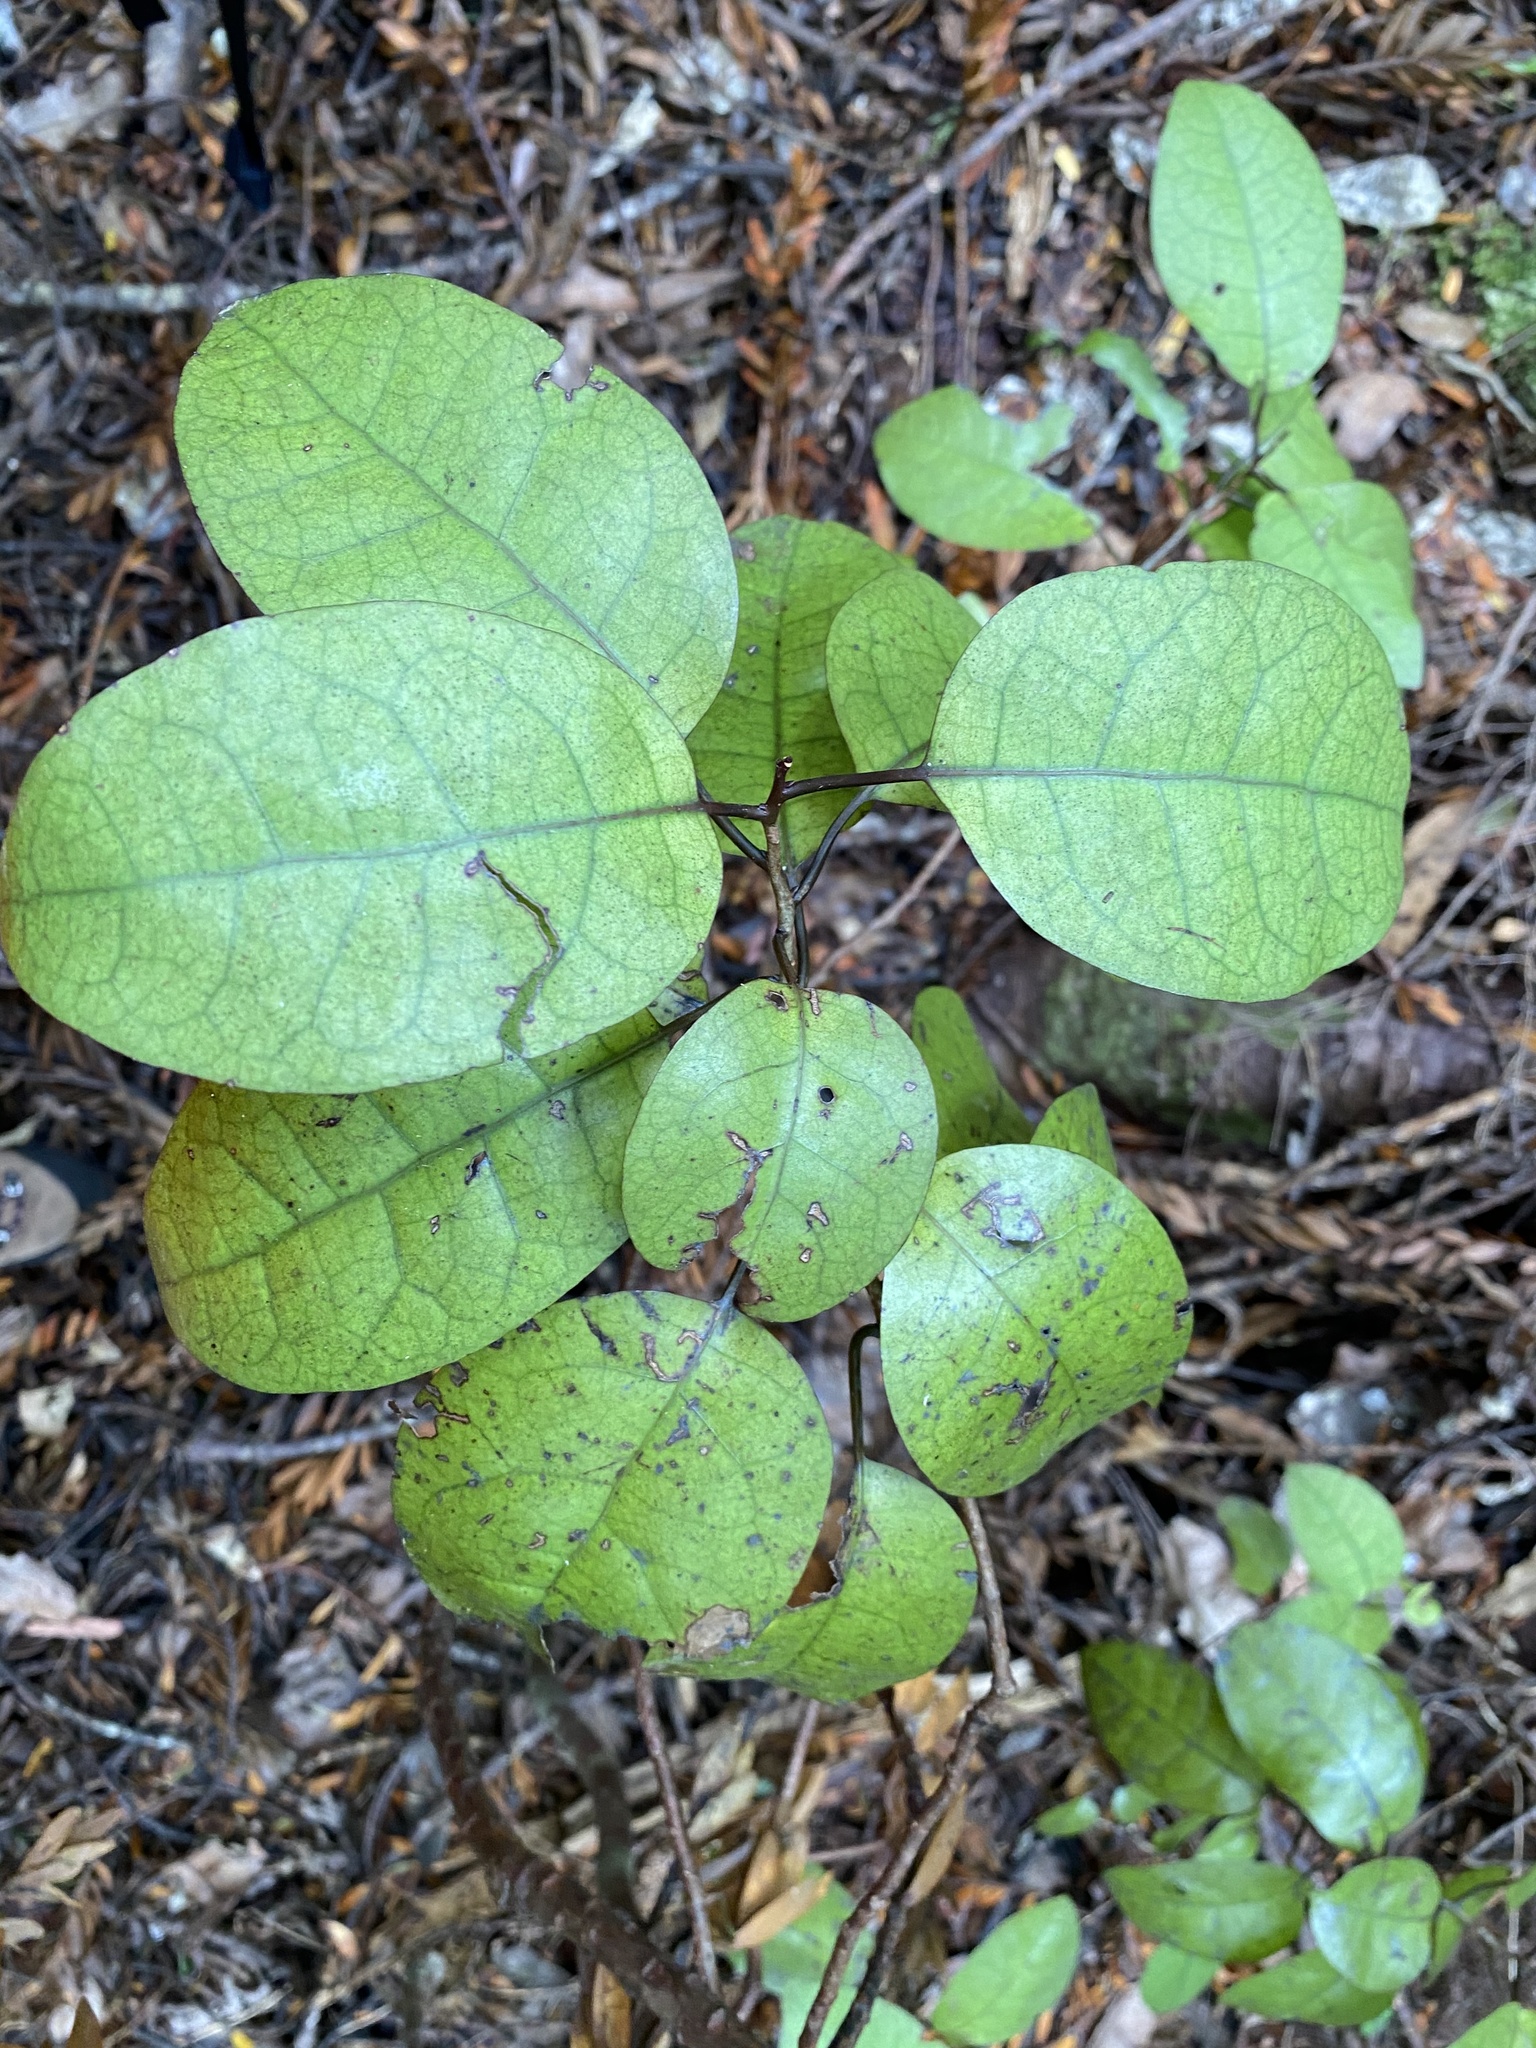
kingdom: Plantae
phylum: Tracheophyta
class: Magnoliopsida
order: Laurales
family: Lauraceae
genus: Litsea
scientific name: Litsea calicaris
